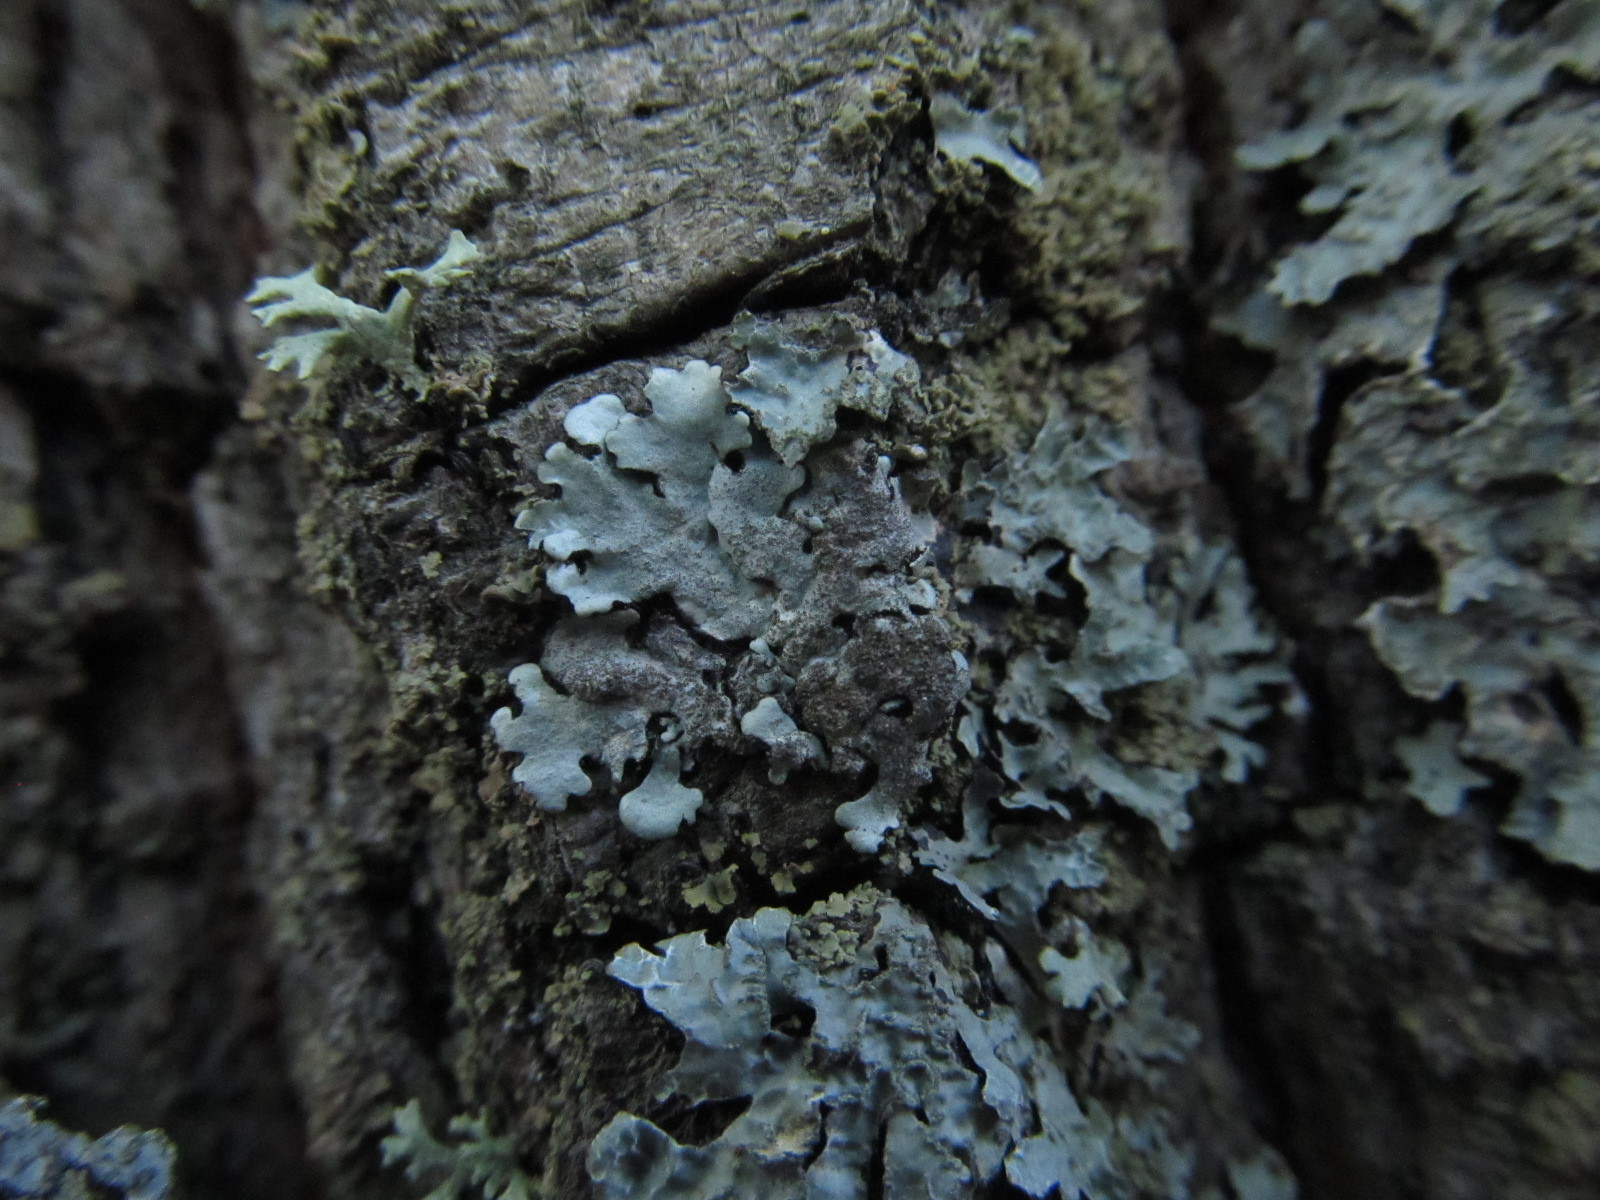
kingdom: Fungi
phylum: Ascomycota
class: Lecanoromycetes
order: Lecanorales
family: Parmeliaceae
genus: Parmelina
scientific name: Parmelina tiliacea
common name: Linden shield lichen
